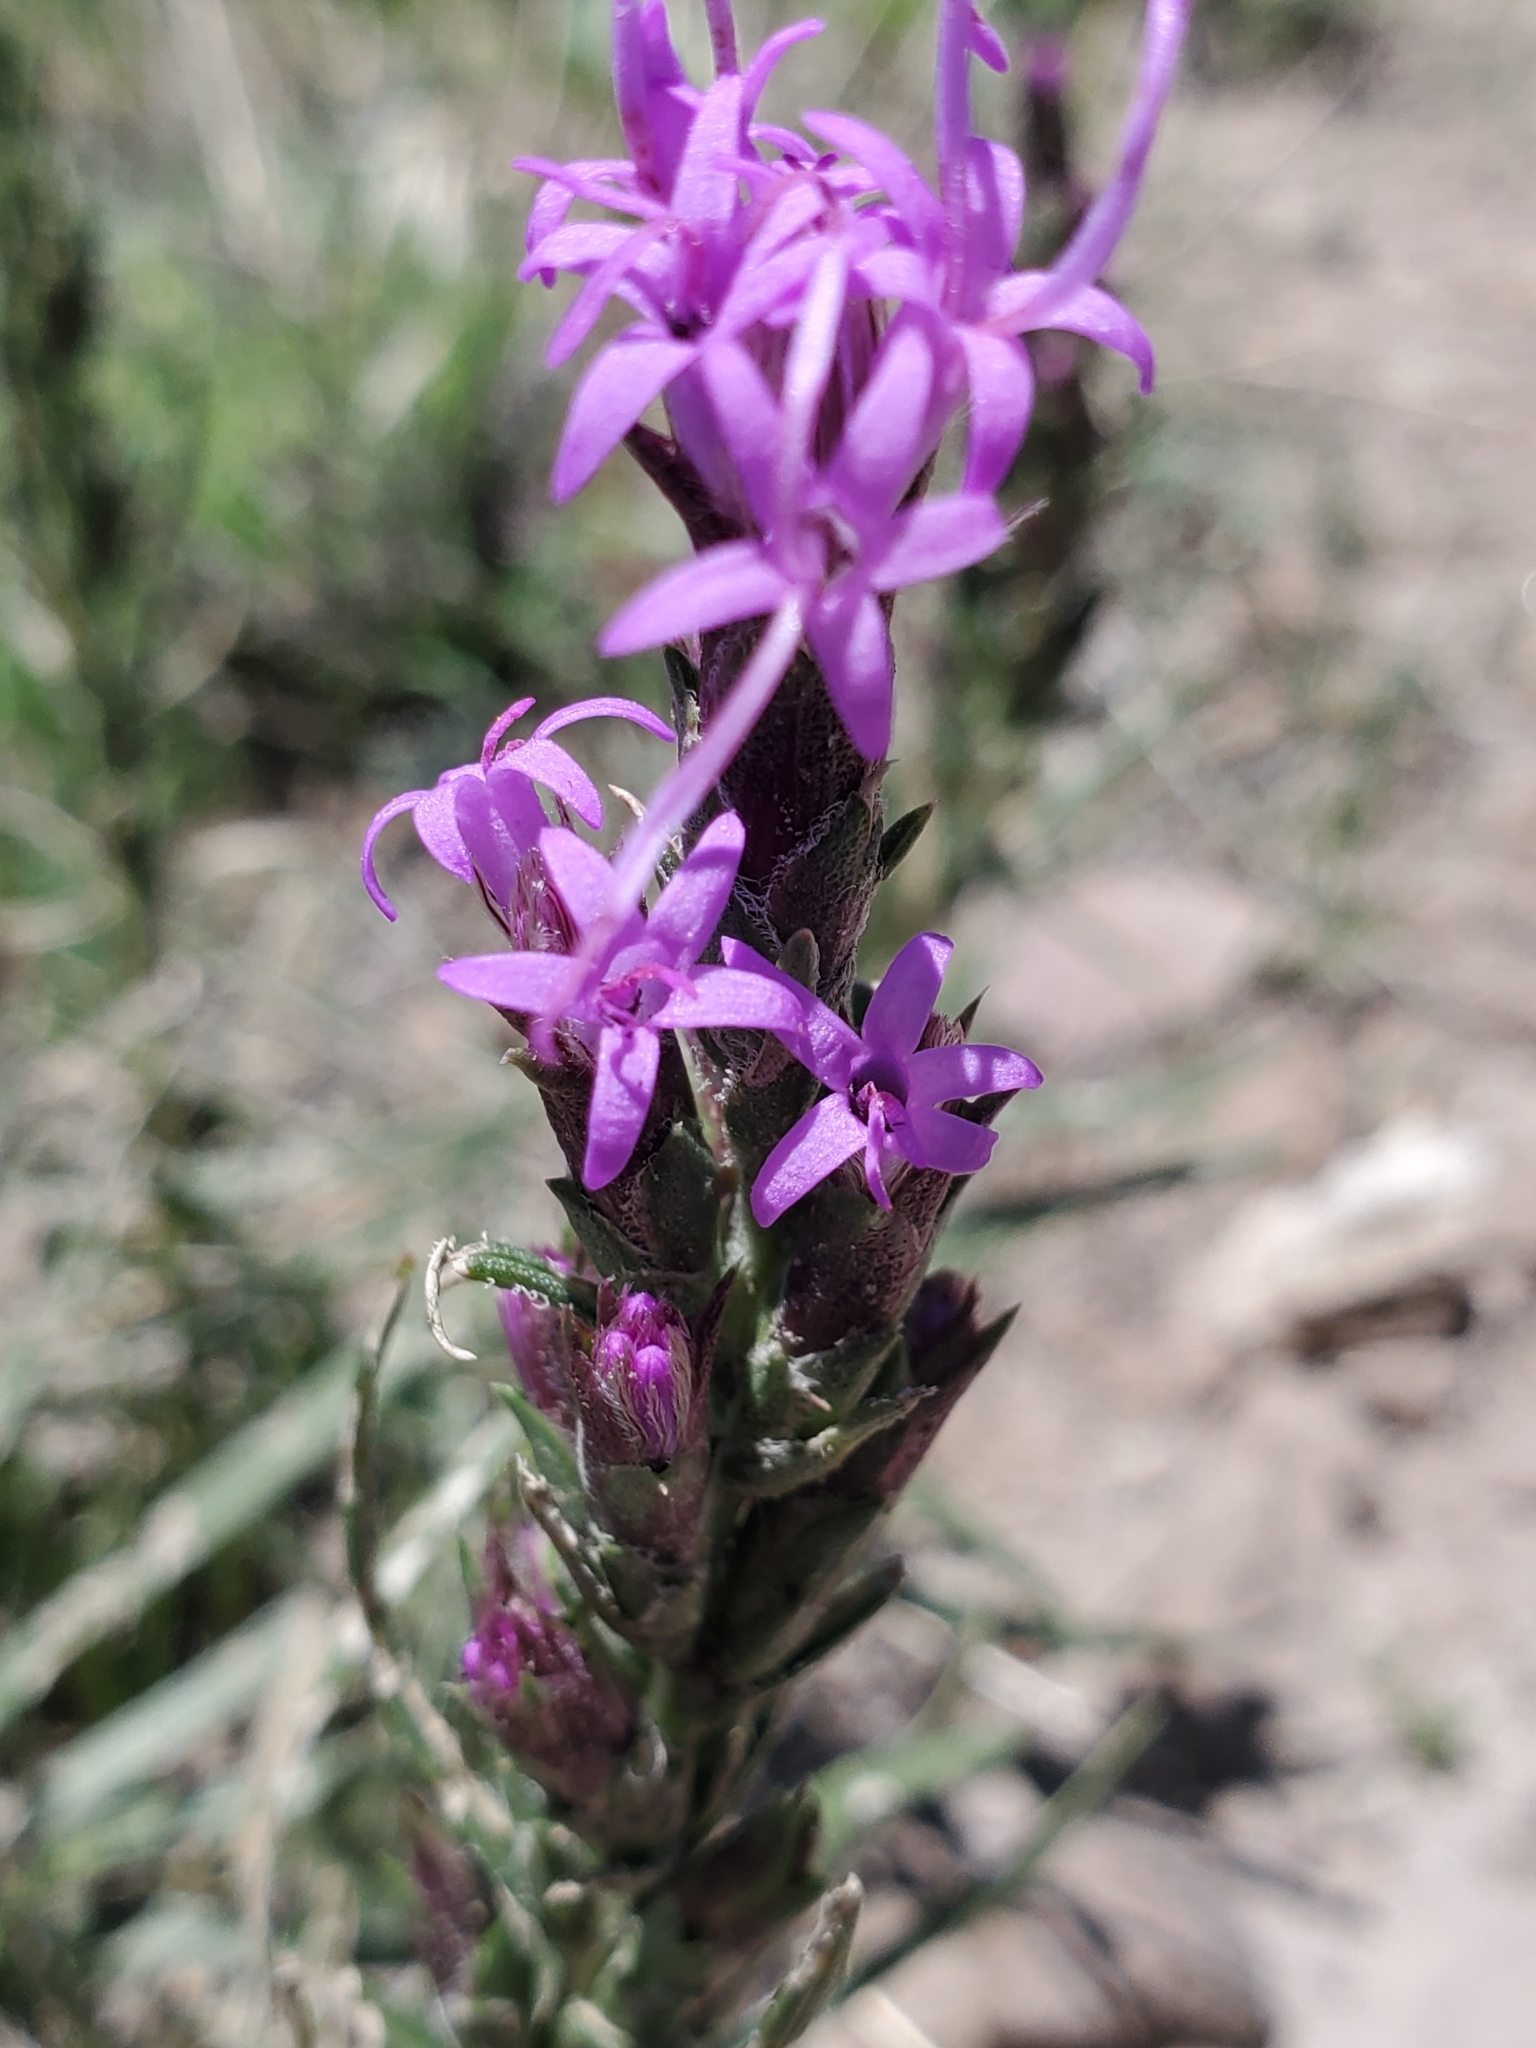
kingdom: Plantae
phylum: Tracheophyta
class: Magnoliopsida
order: Asterales
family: Asteraceae
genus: Liatris
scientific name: Liatris punctata
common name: Dotted gayfeather
